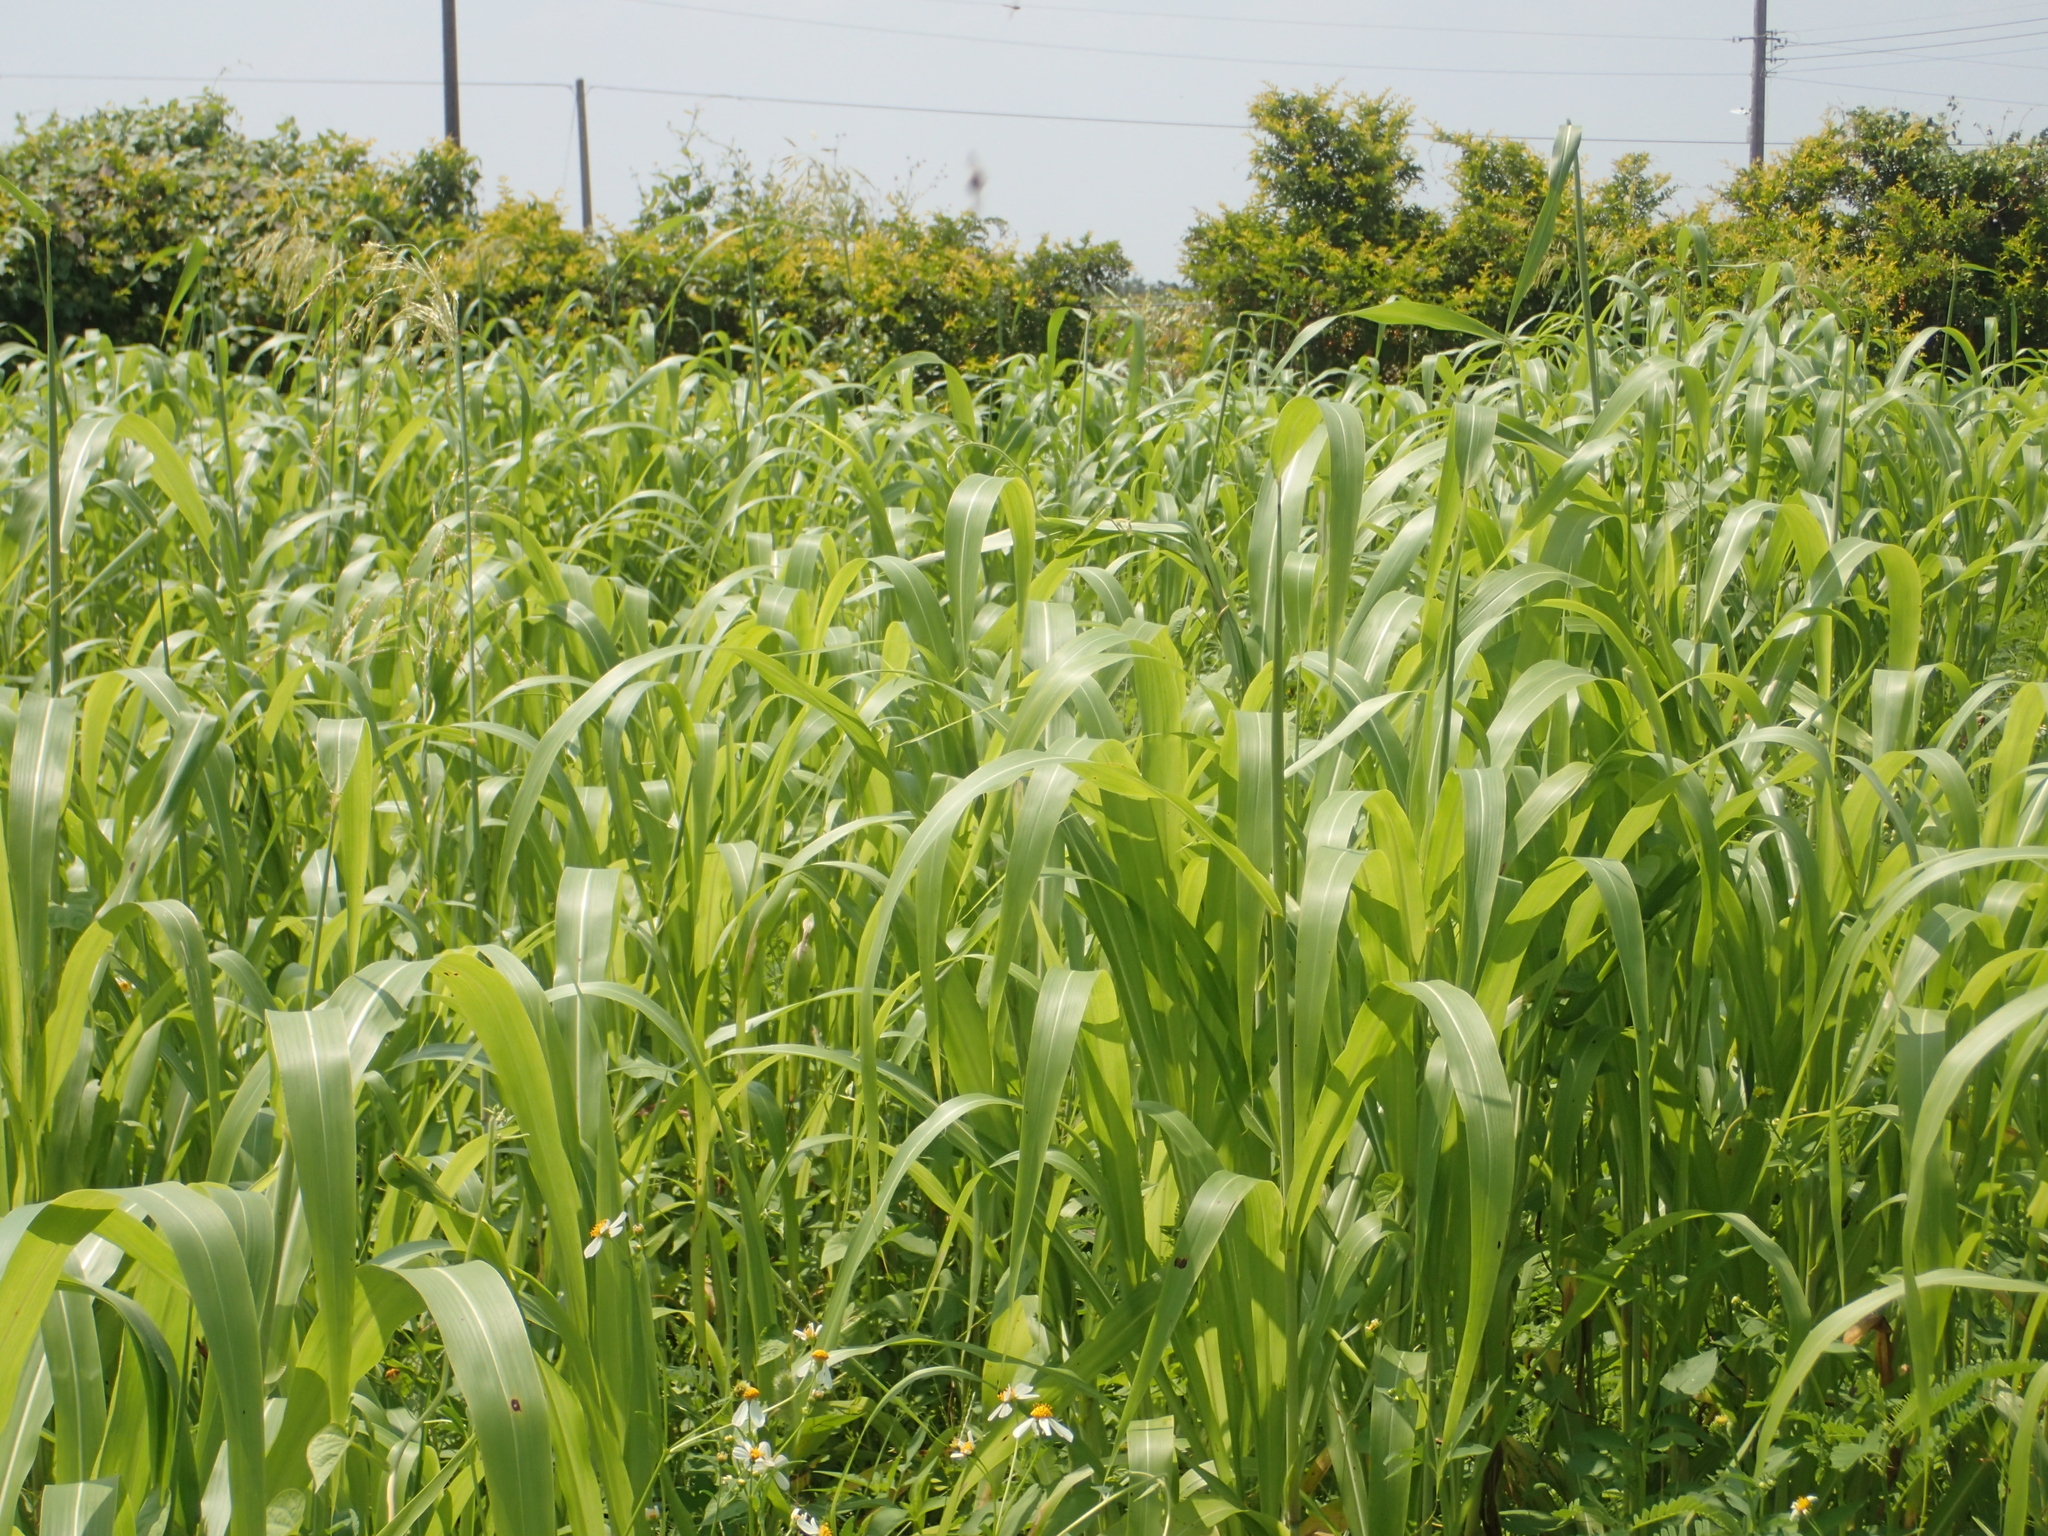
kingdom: Plantae
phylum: Tracheophyta
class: Liliopsida
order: Poales
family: Poaceae
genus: Sorghum
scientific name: Sorghum arundinaceum
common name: Sorghum
